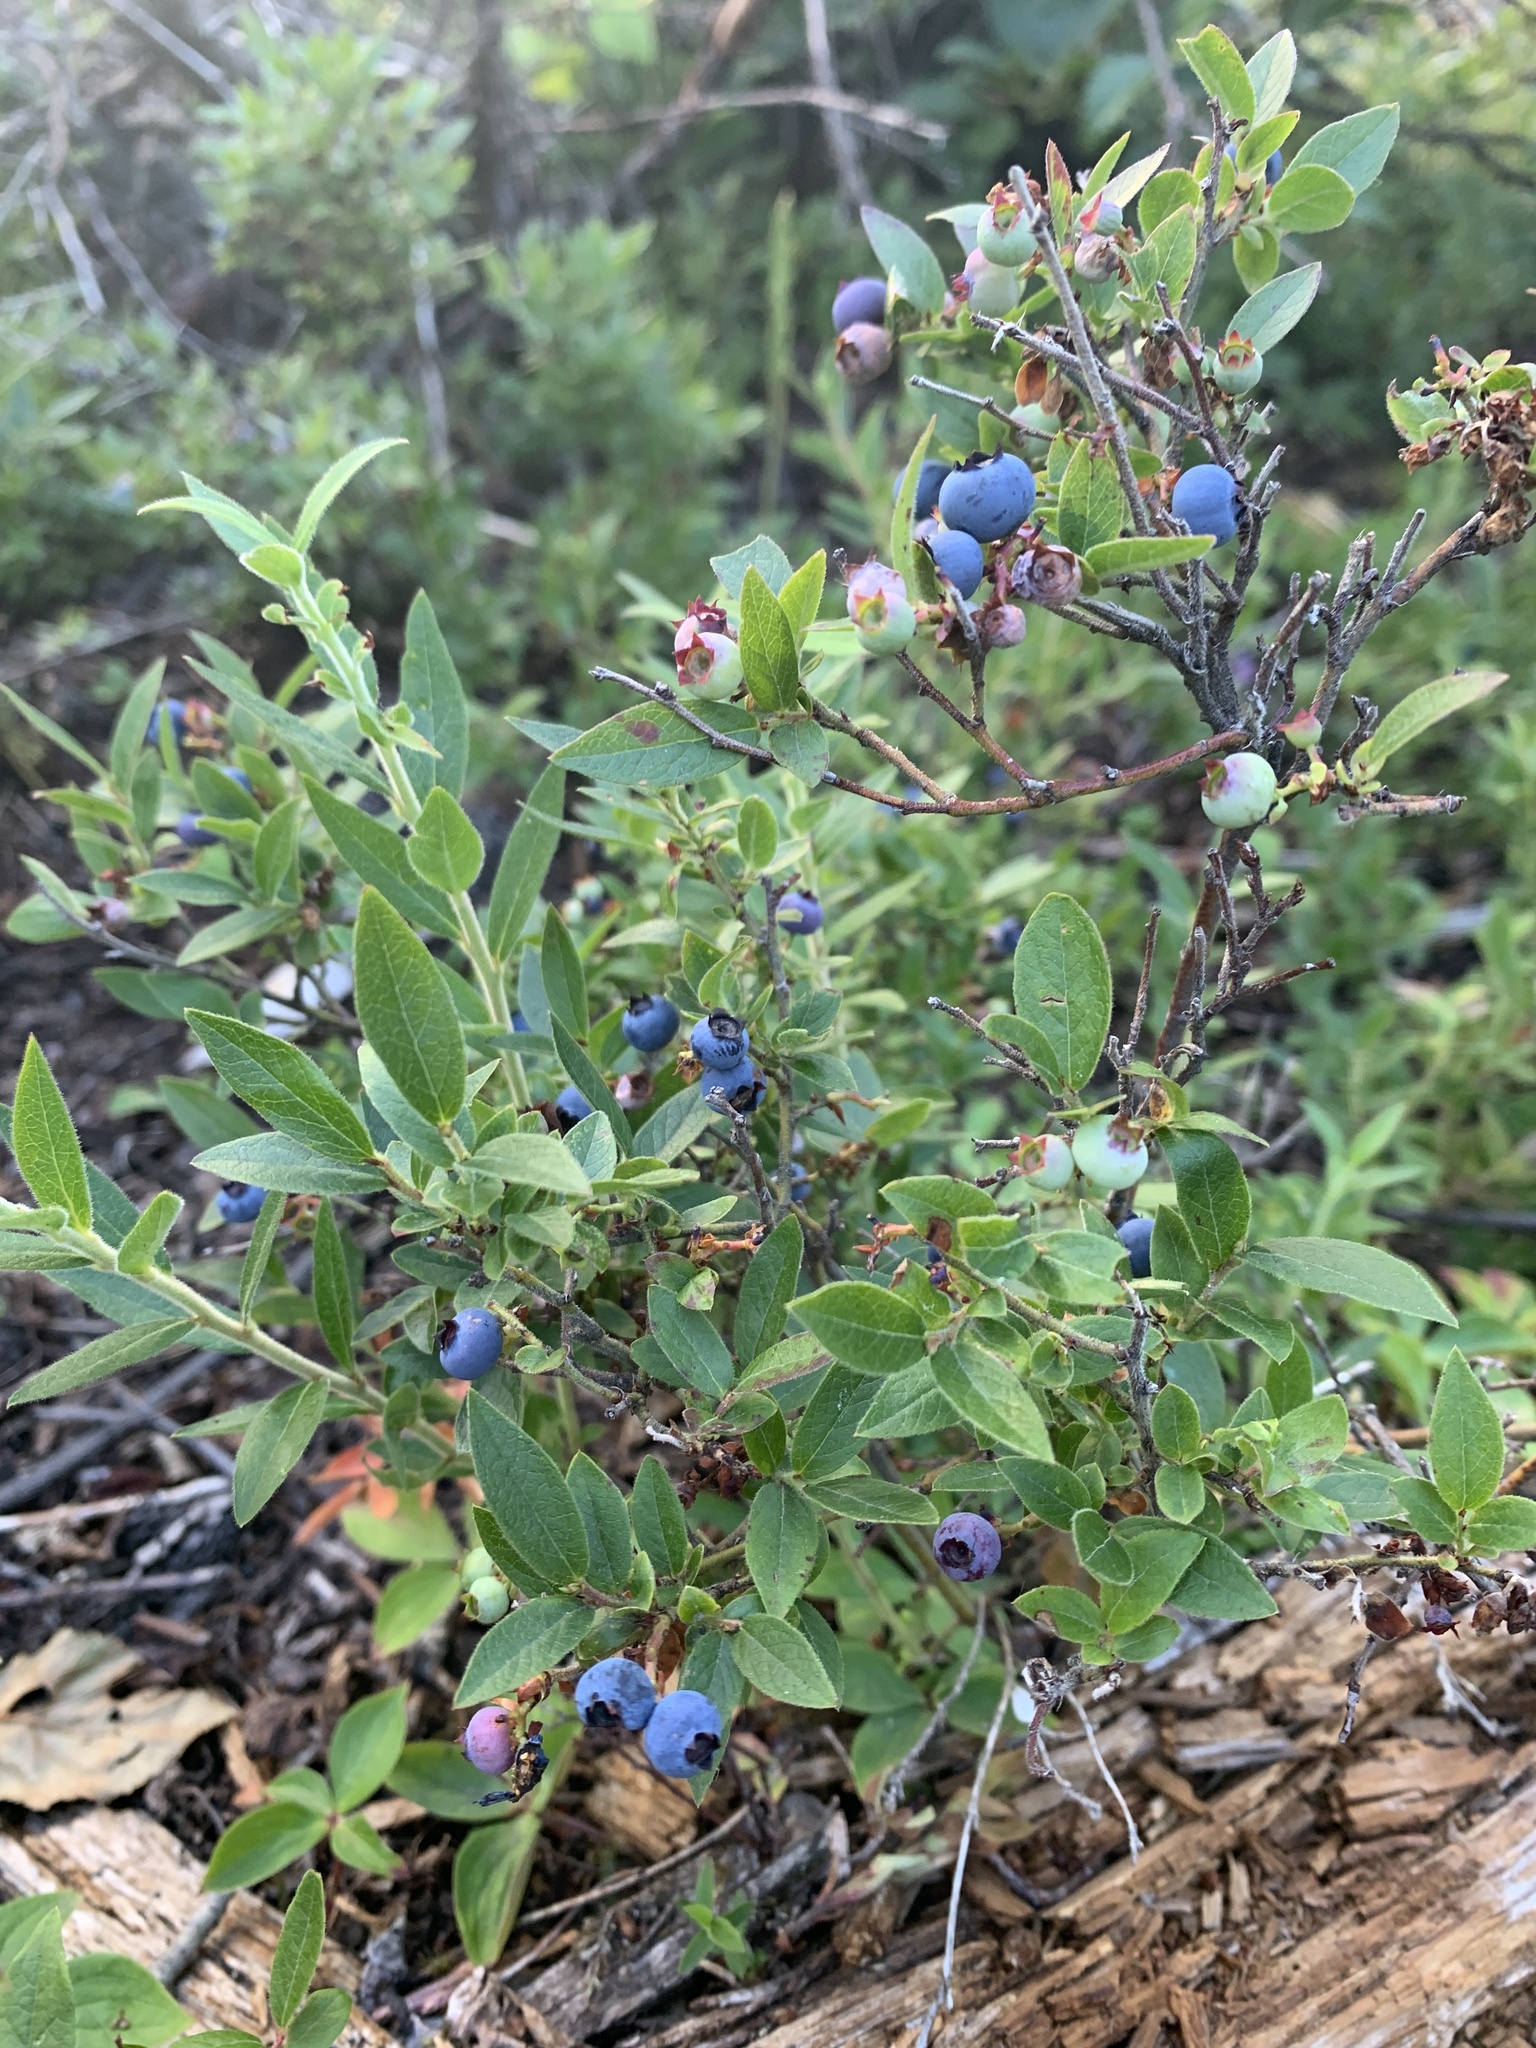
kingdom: Plantae
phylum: Tracheophyta
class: Magnoliopsida
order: Ericales
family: Ericaceae
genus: Vaccinium
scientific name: Vaccinium myrtilloides
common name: Canada blueberry
